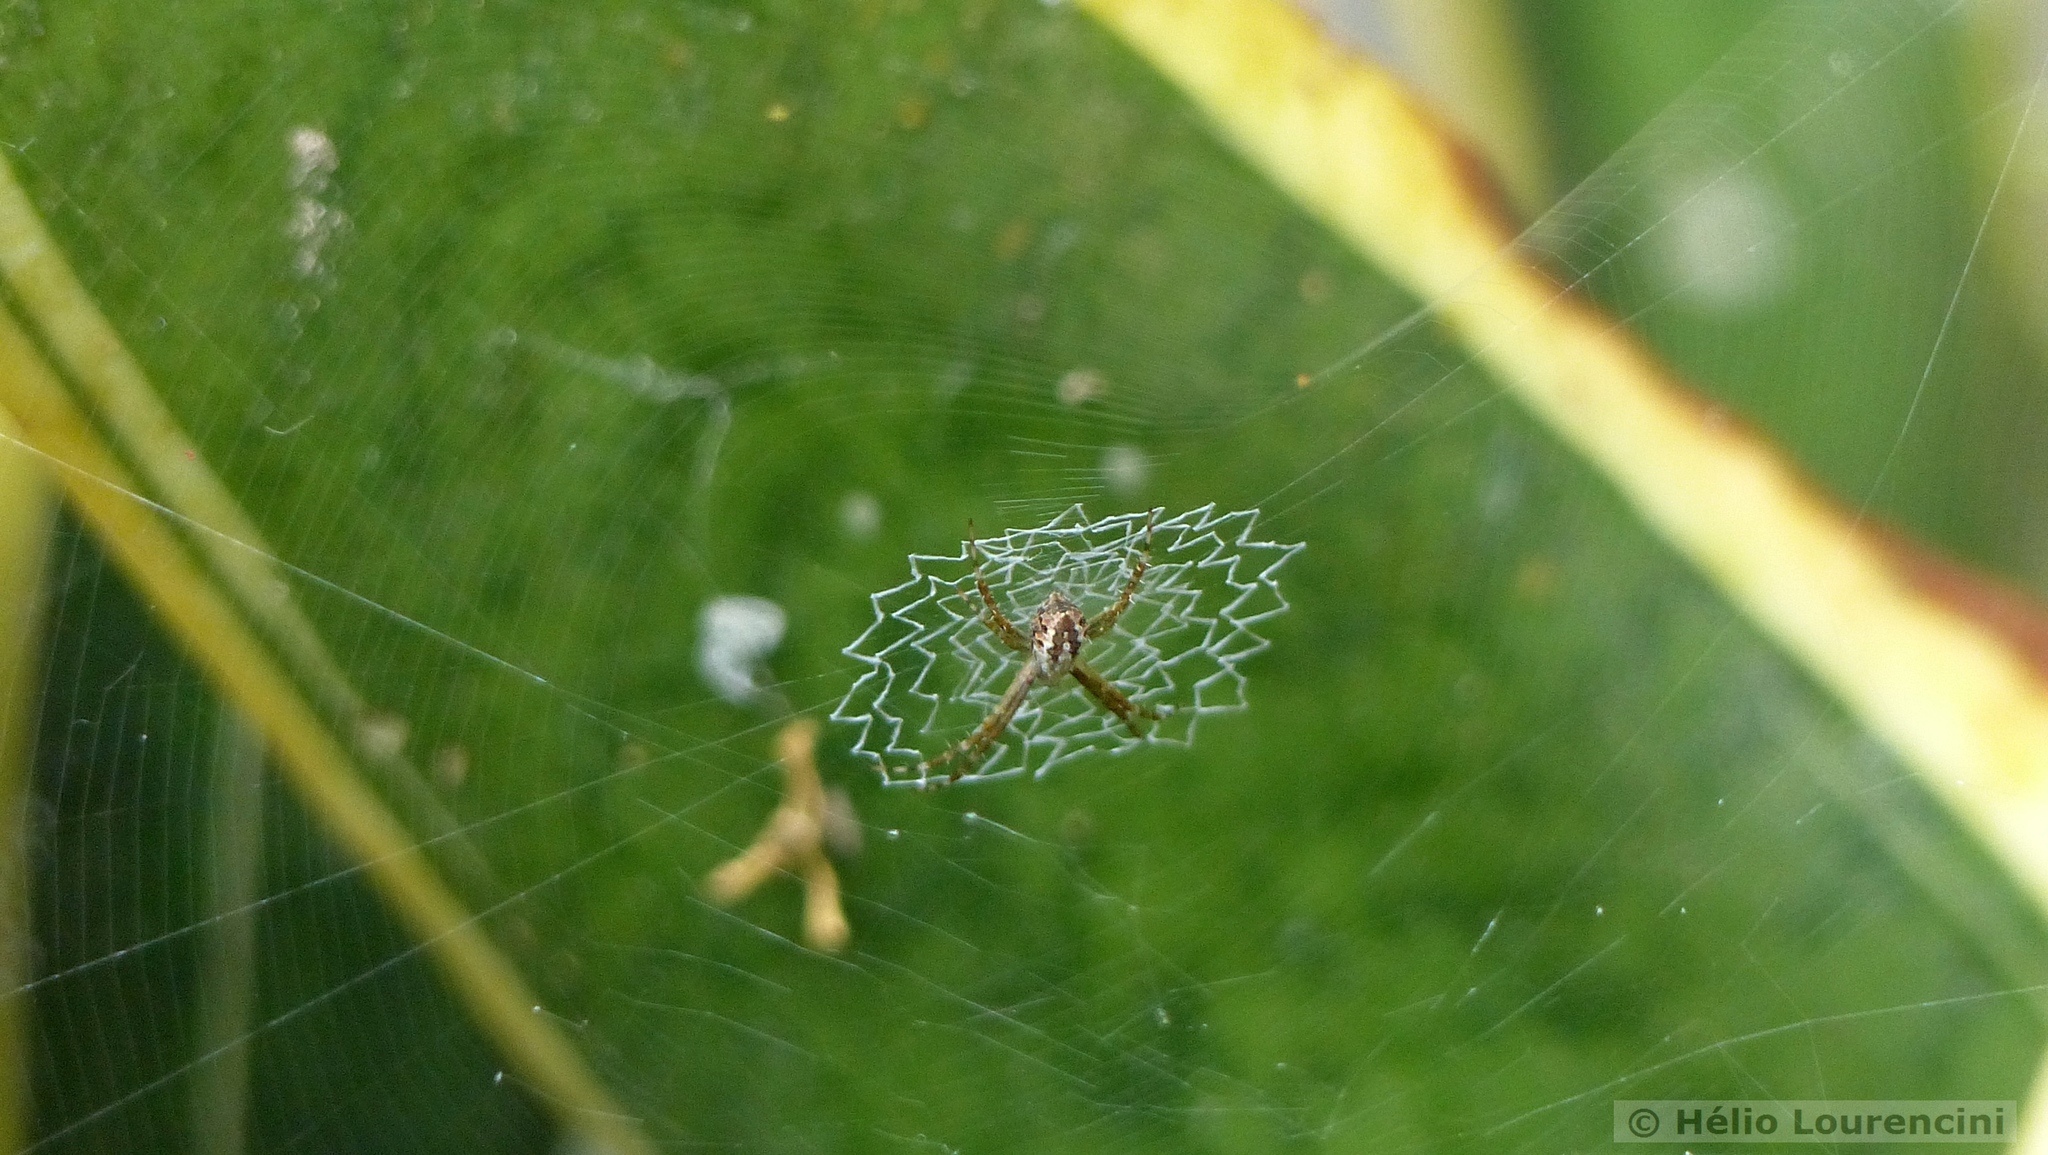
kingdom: Animalia
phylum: Arthropoda
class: Arachnida
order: Araneae
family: Araneidae
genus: Argiope
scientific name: Argiope argentata
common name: Orb weavers
